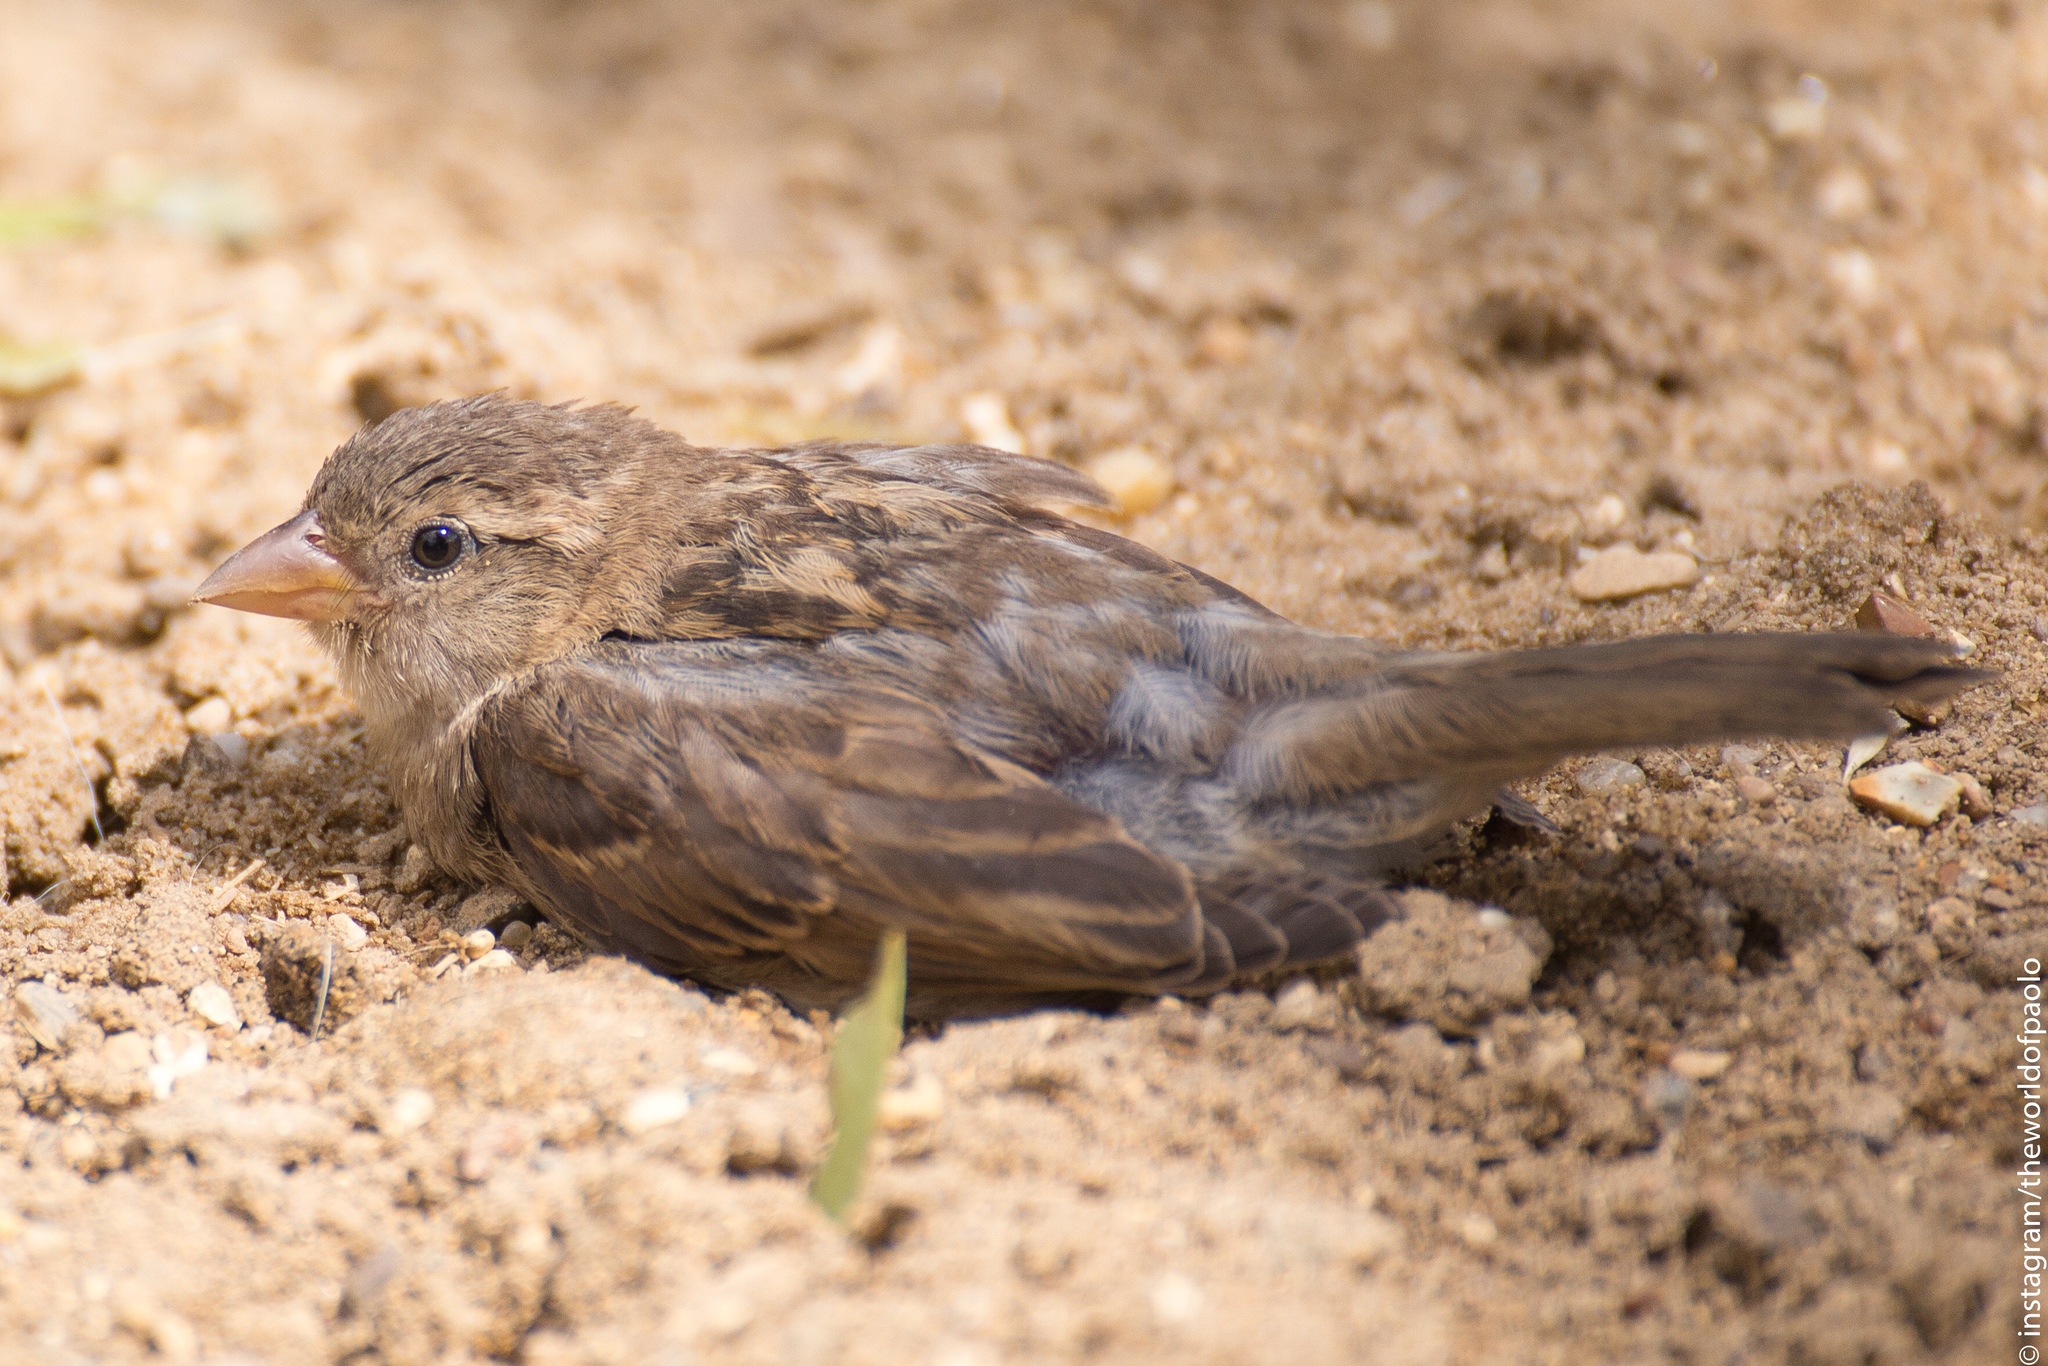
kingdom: Animalia
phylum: Chordata
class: Aves
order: Passeriformes
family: Passeridae
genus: Passer
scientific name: Passer domesticus
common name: House sparrow
